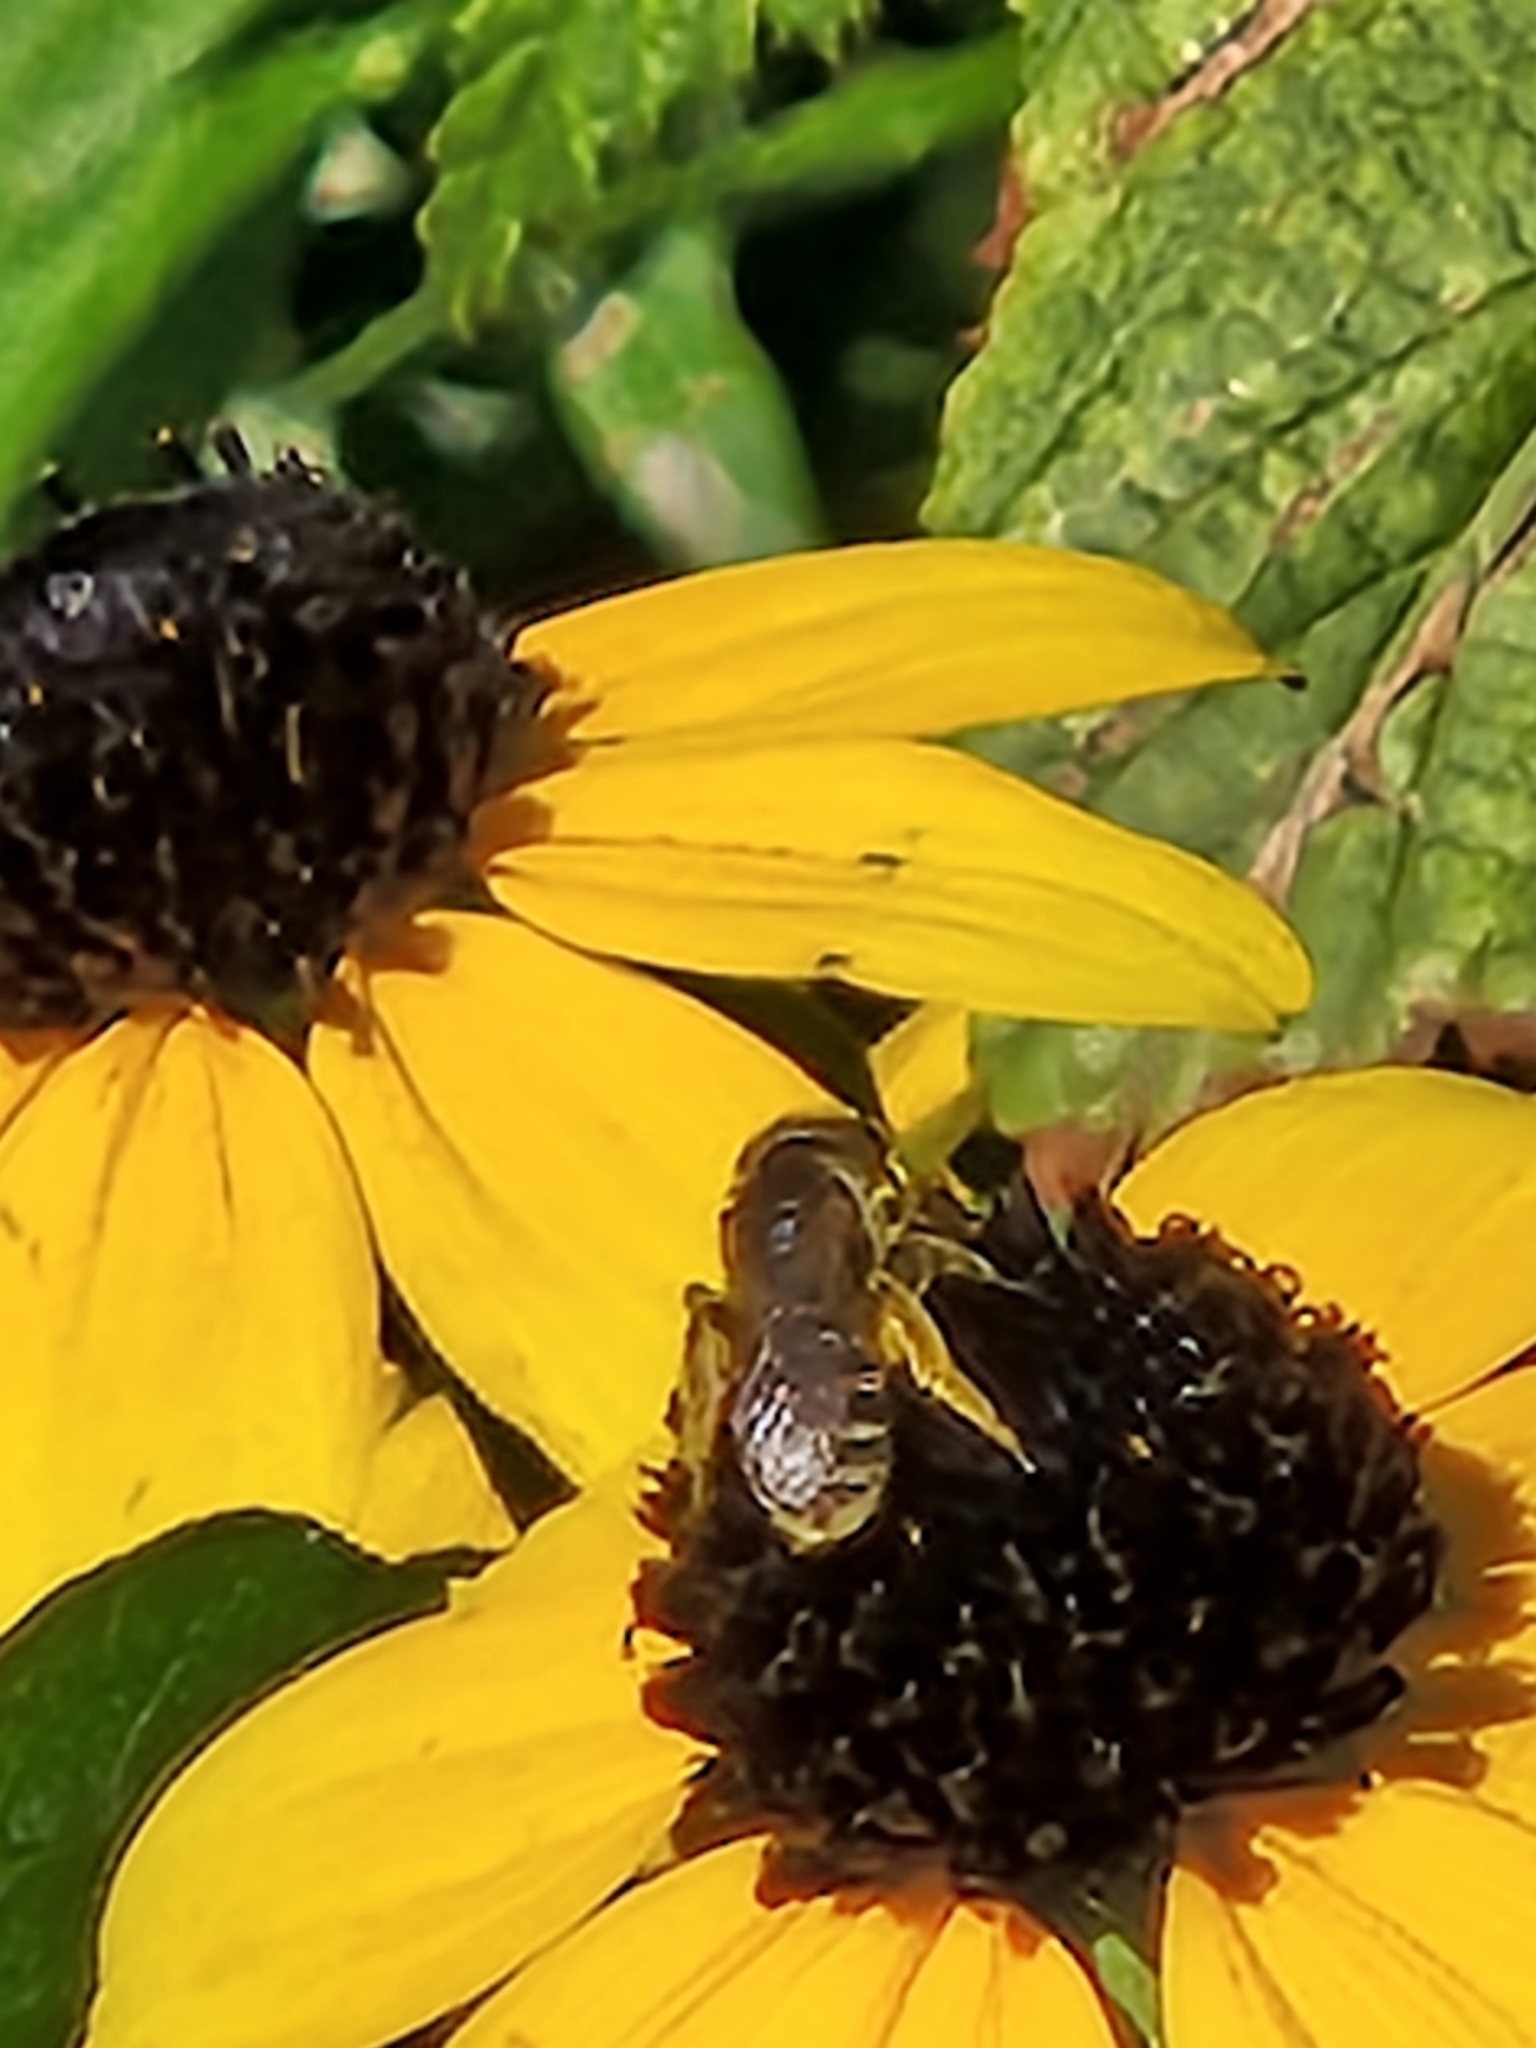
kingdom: Animalia
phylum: Arthropoda
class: Insecta
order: Hymenoptera
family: Halictidae
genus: Halictus
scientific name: Halictus ligatus
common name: Ligated furrow bee
